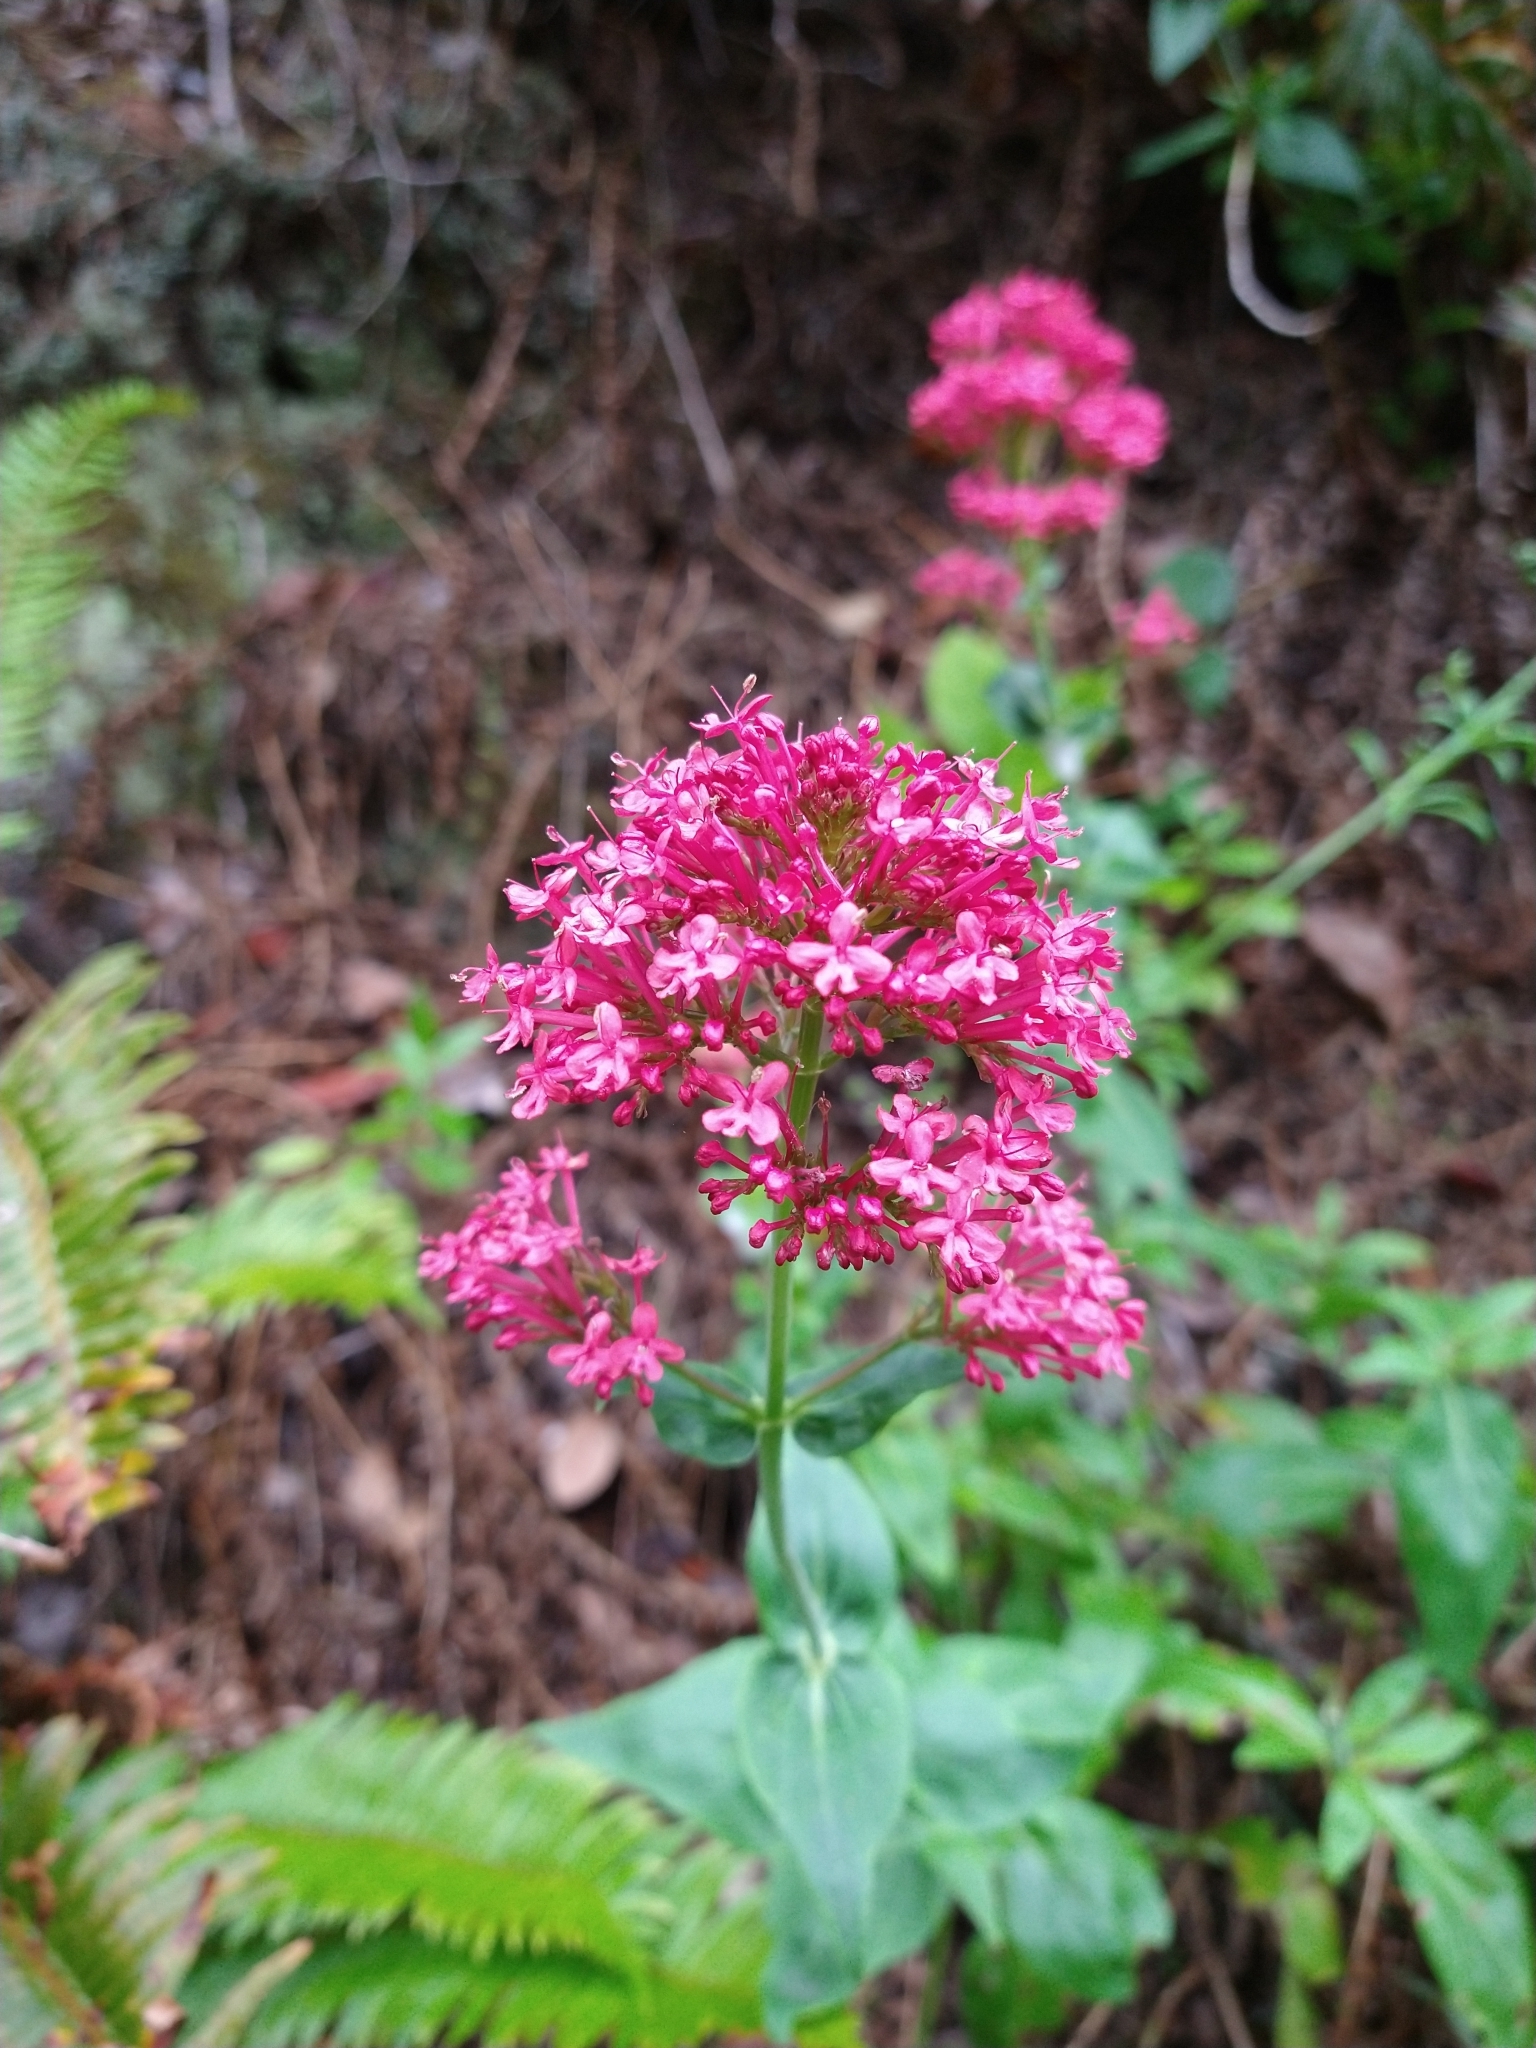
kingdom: Plantae
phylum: Tracheophyta
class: Magnoliopsida
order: Dipsacales
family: Caprifoliaceae
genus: Centranthus
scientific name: Centranthus ruber
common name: Red valerian
